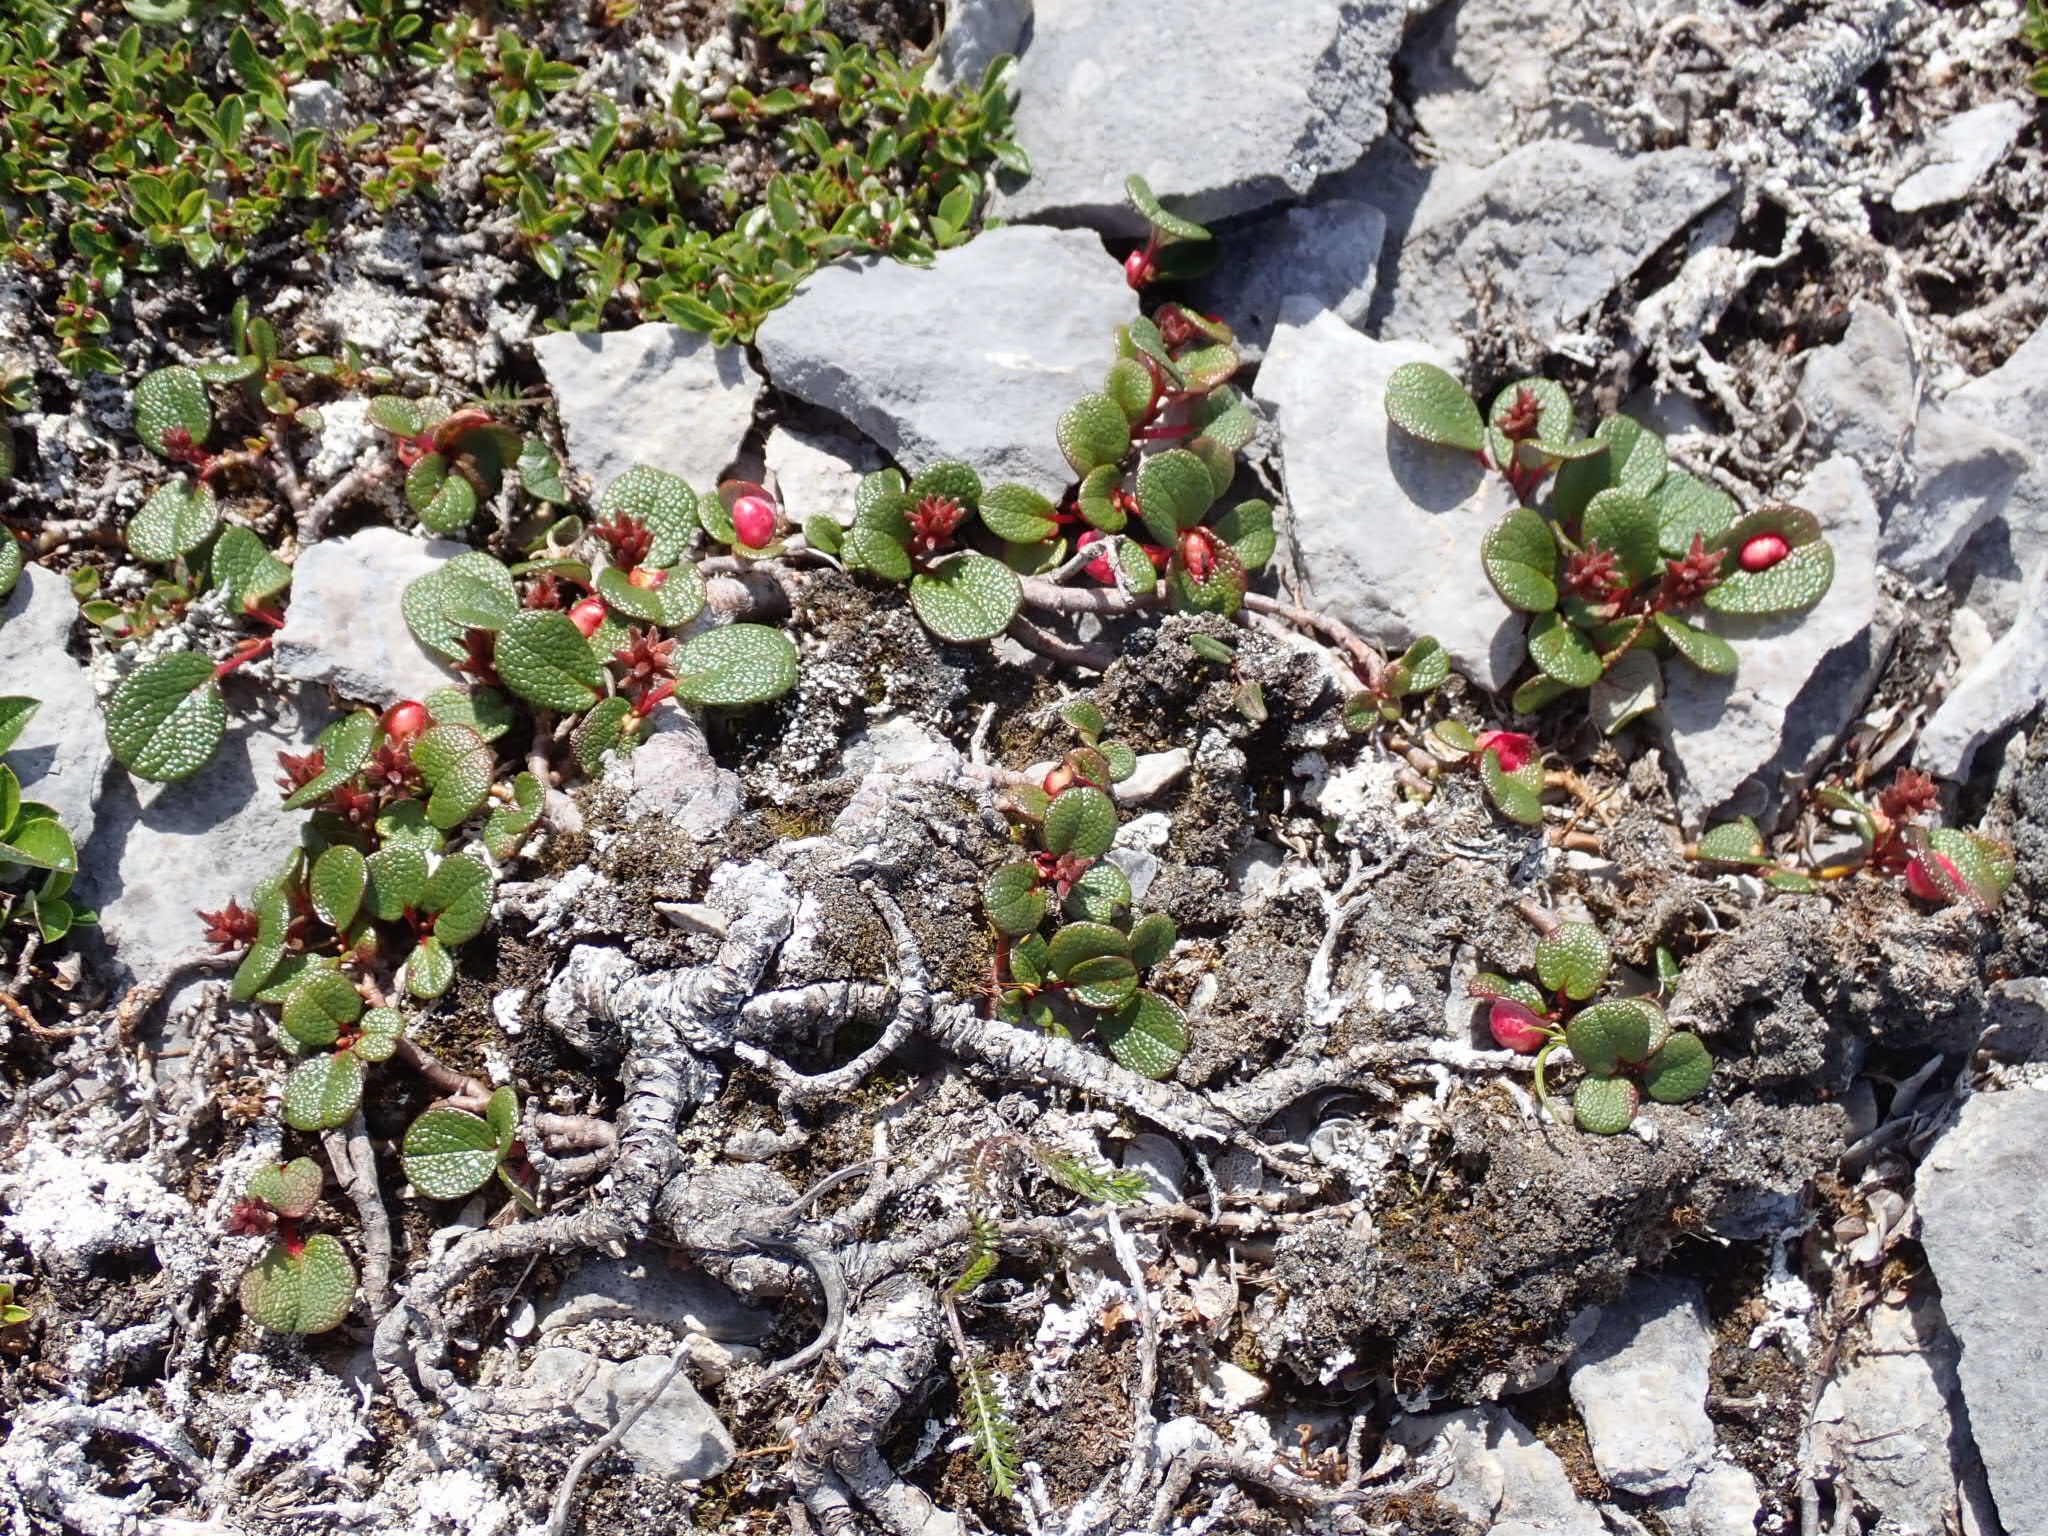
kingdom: Plantae
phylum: Tracheophyta
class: Magnoliopsida
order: Malpighiales
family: Salicaceae
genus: Salix
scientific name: Salix reticulata
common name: Net-leaved willow
